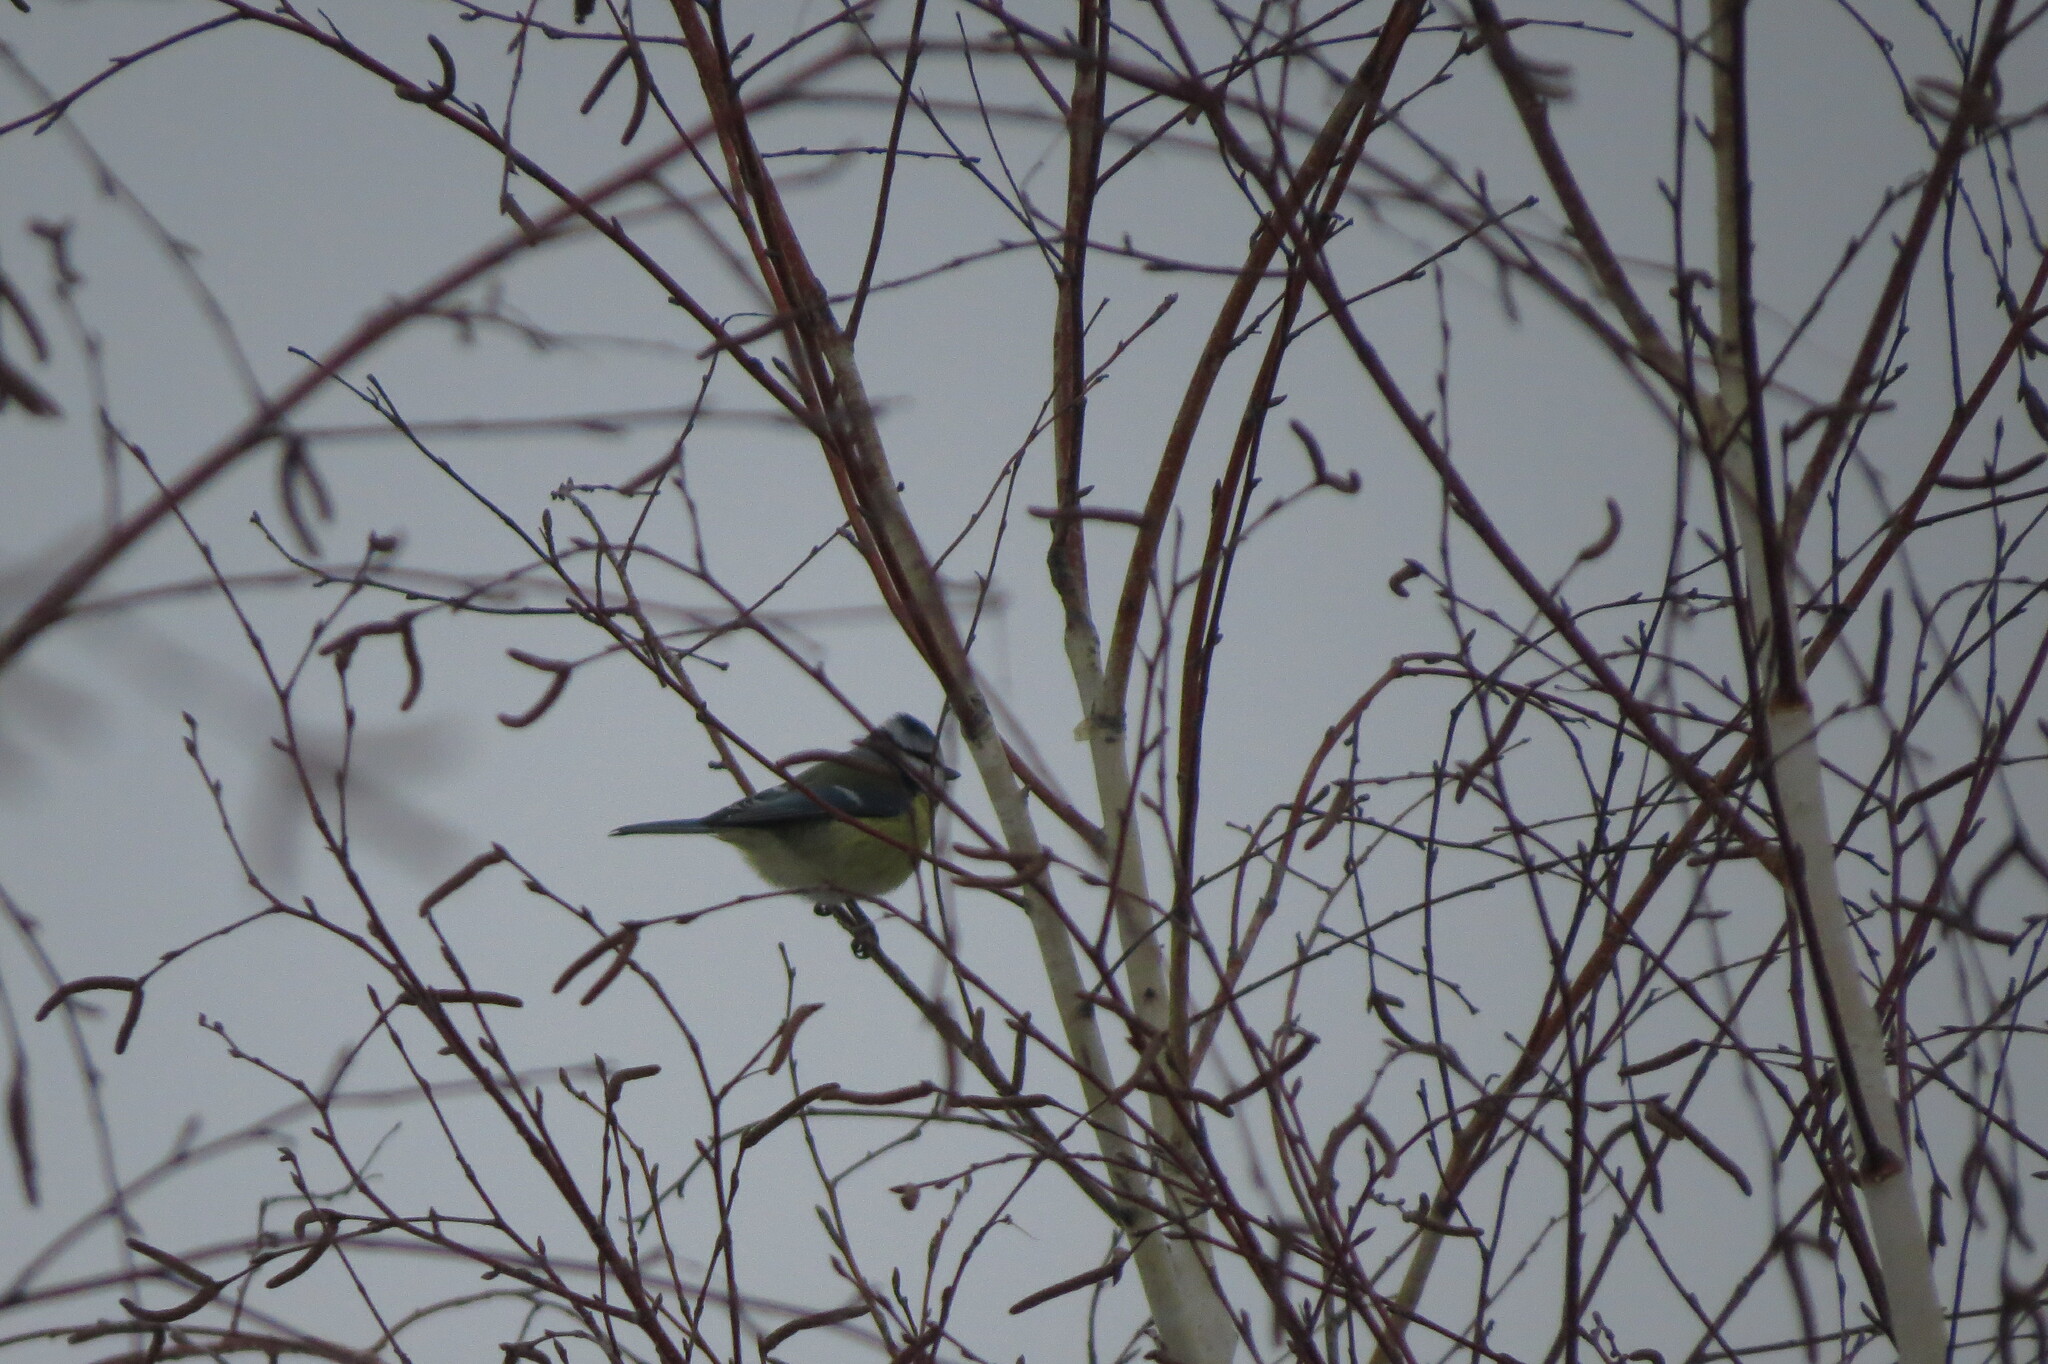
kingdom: Animalia
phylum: Chordata
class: Aves
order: Passeriformes
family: Paridae
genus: Cyanistes
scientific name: Cyanistes caeruleus
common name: Eurasian blue tit
